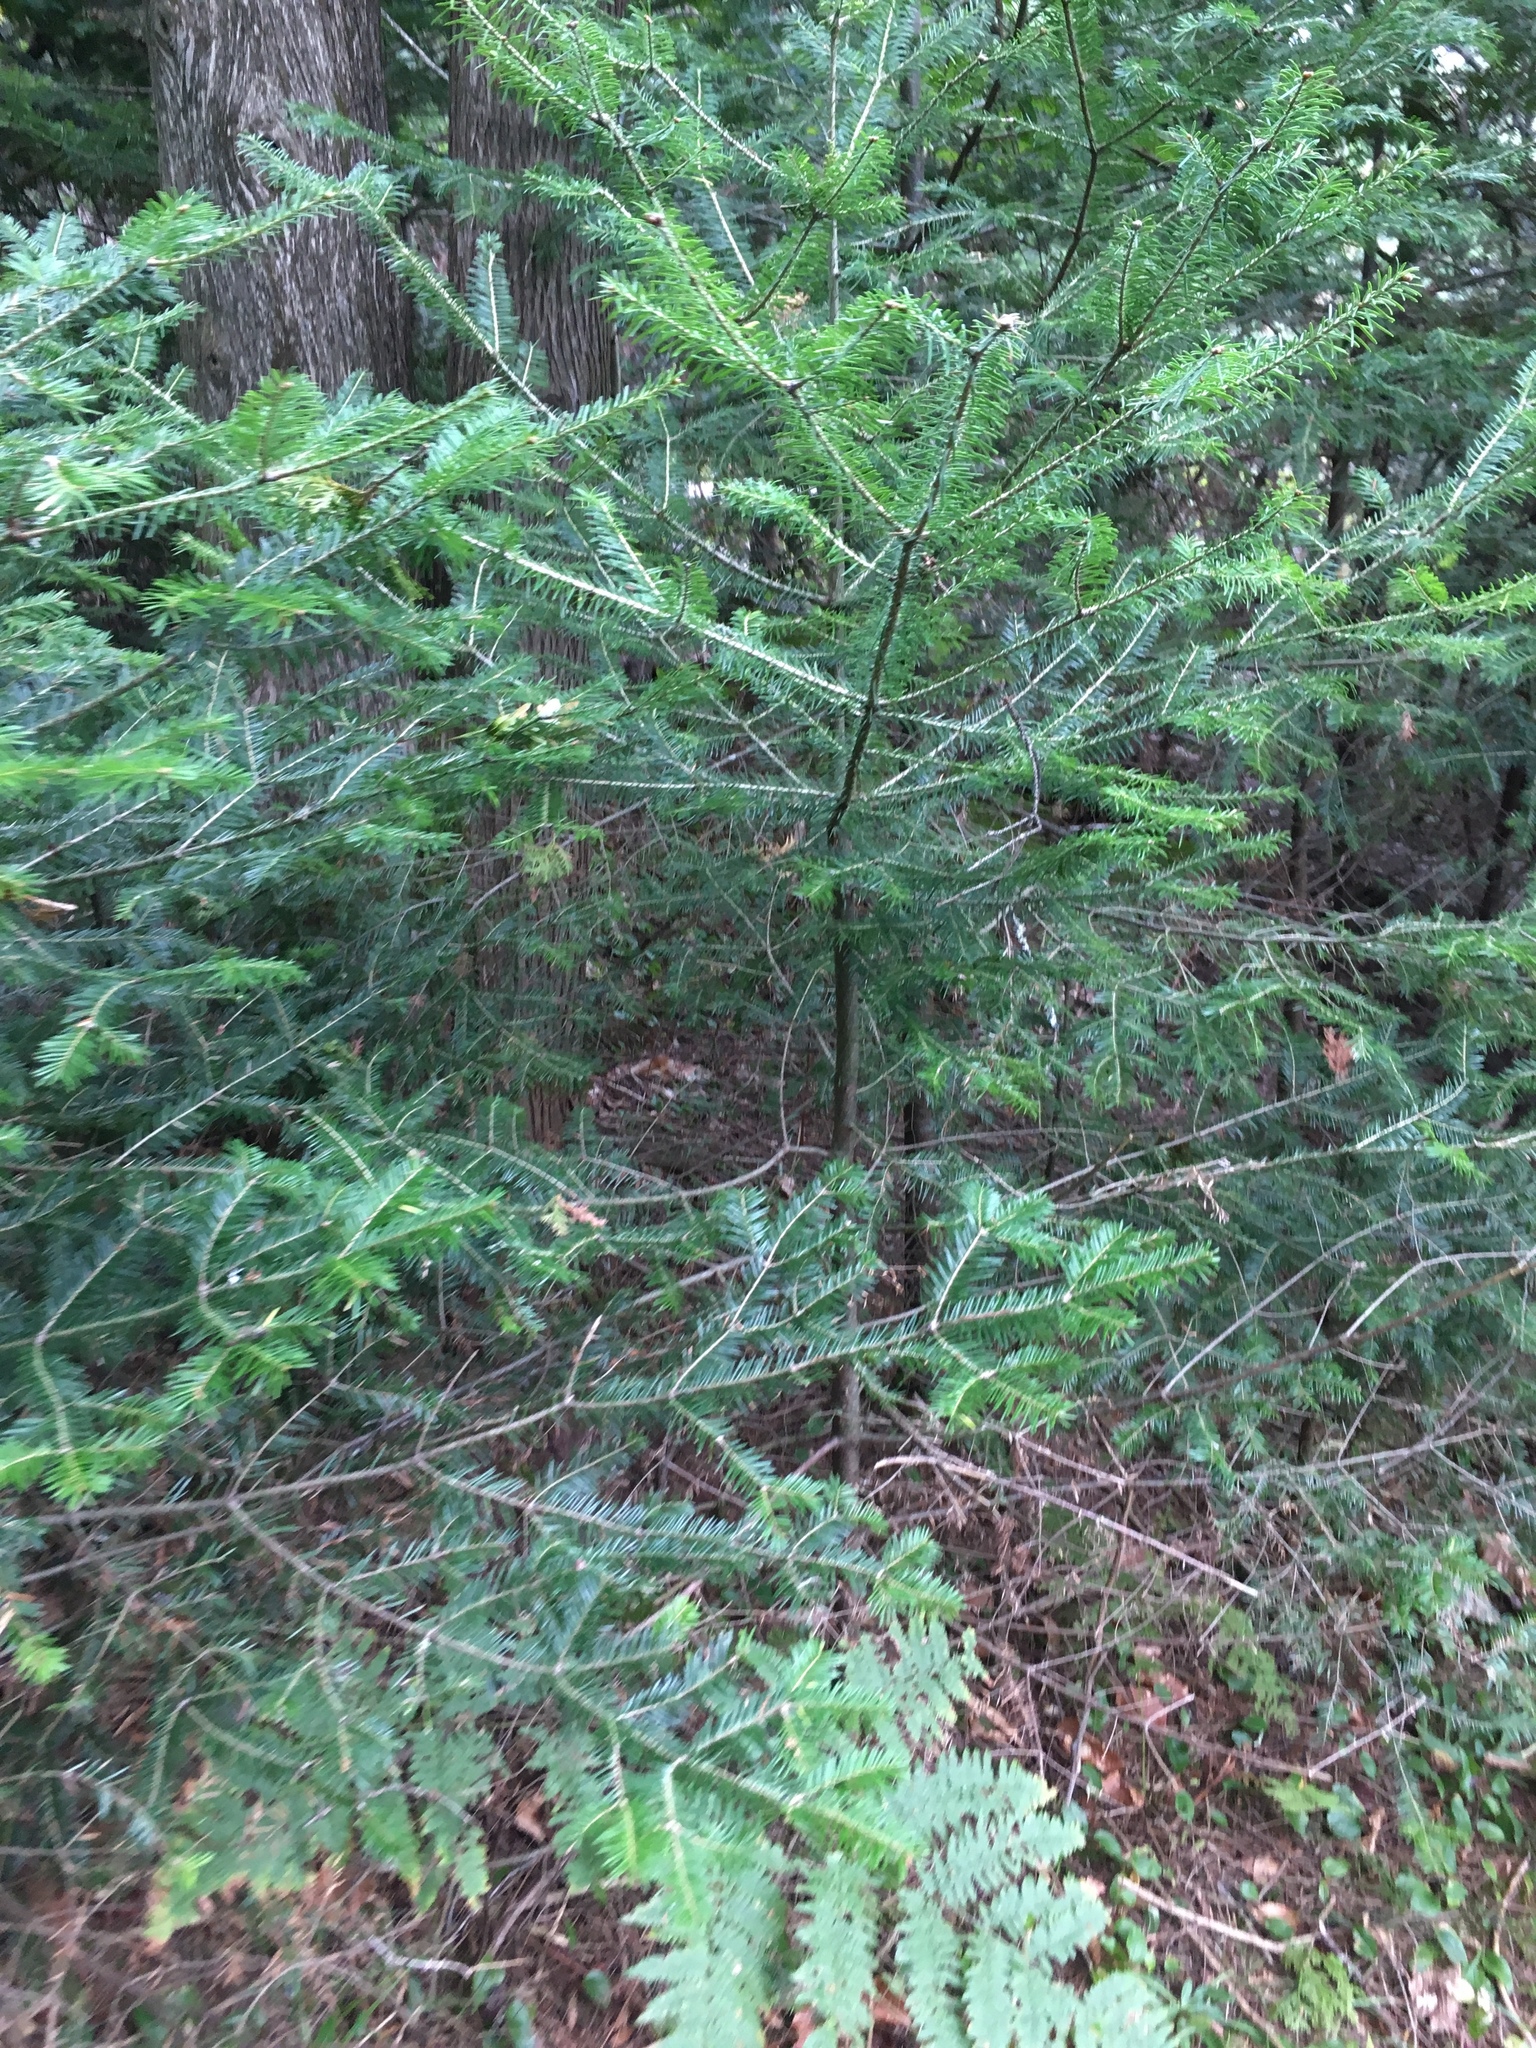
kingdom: Plantae
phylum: Tracheophyta
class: Pinopsida
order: Pinales
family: Pinaceae
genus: Abies
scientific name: Abies balsamea
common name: Balsam fir
